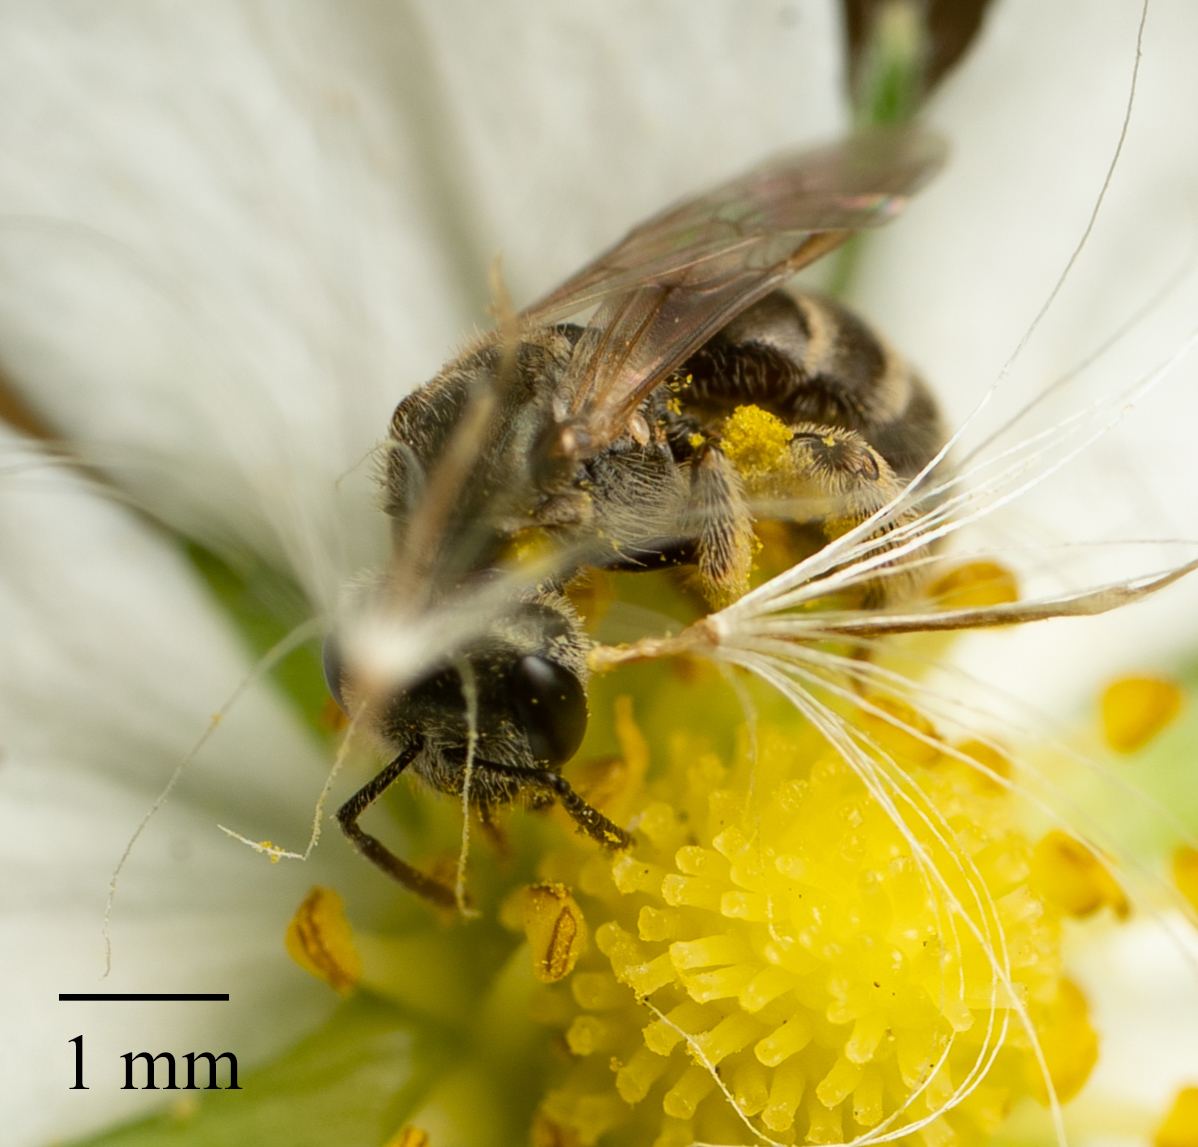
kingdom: Animalia
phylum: Arthropoda
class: Insecta
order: Hymenoptera
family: Halictidae
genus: Halictus
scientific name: Halictus tripartitus
